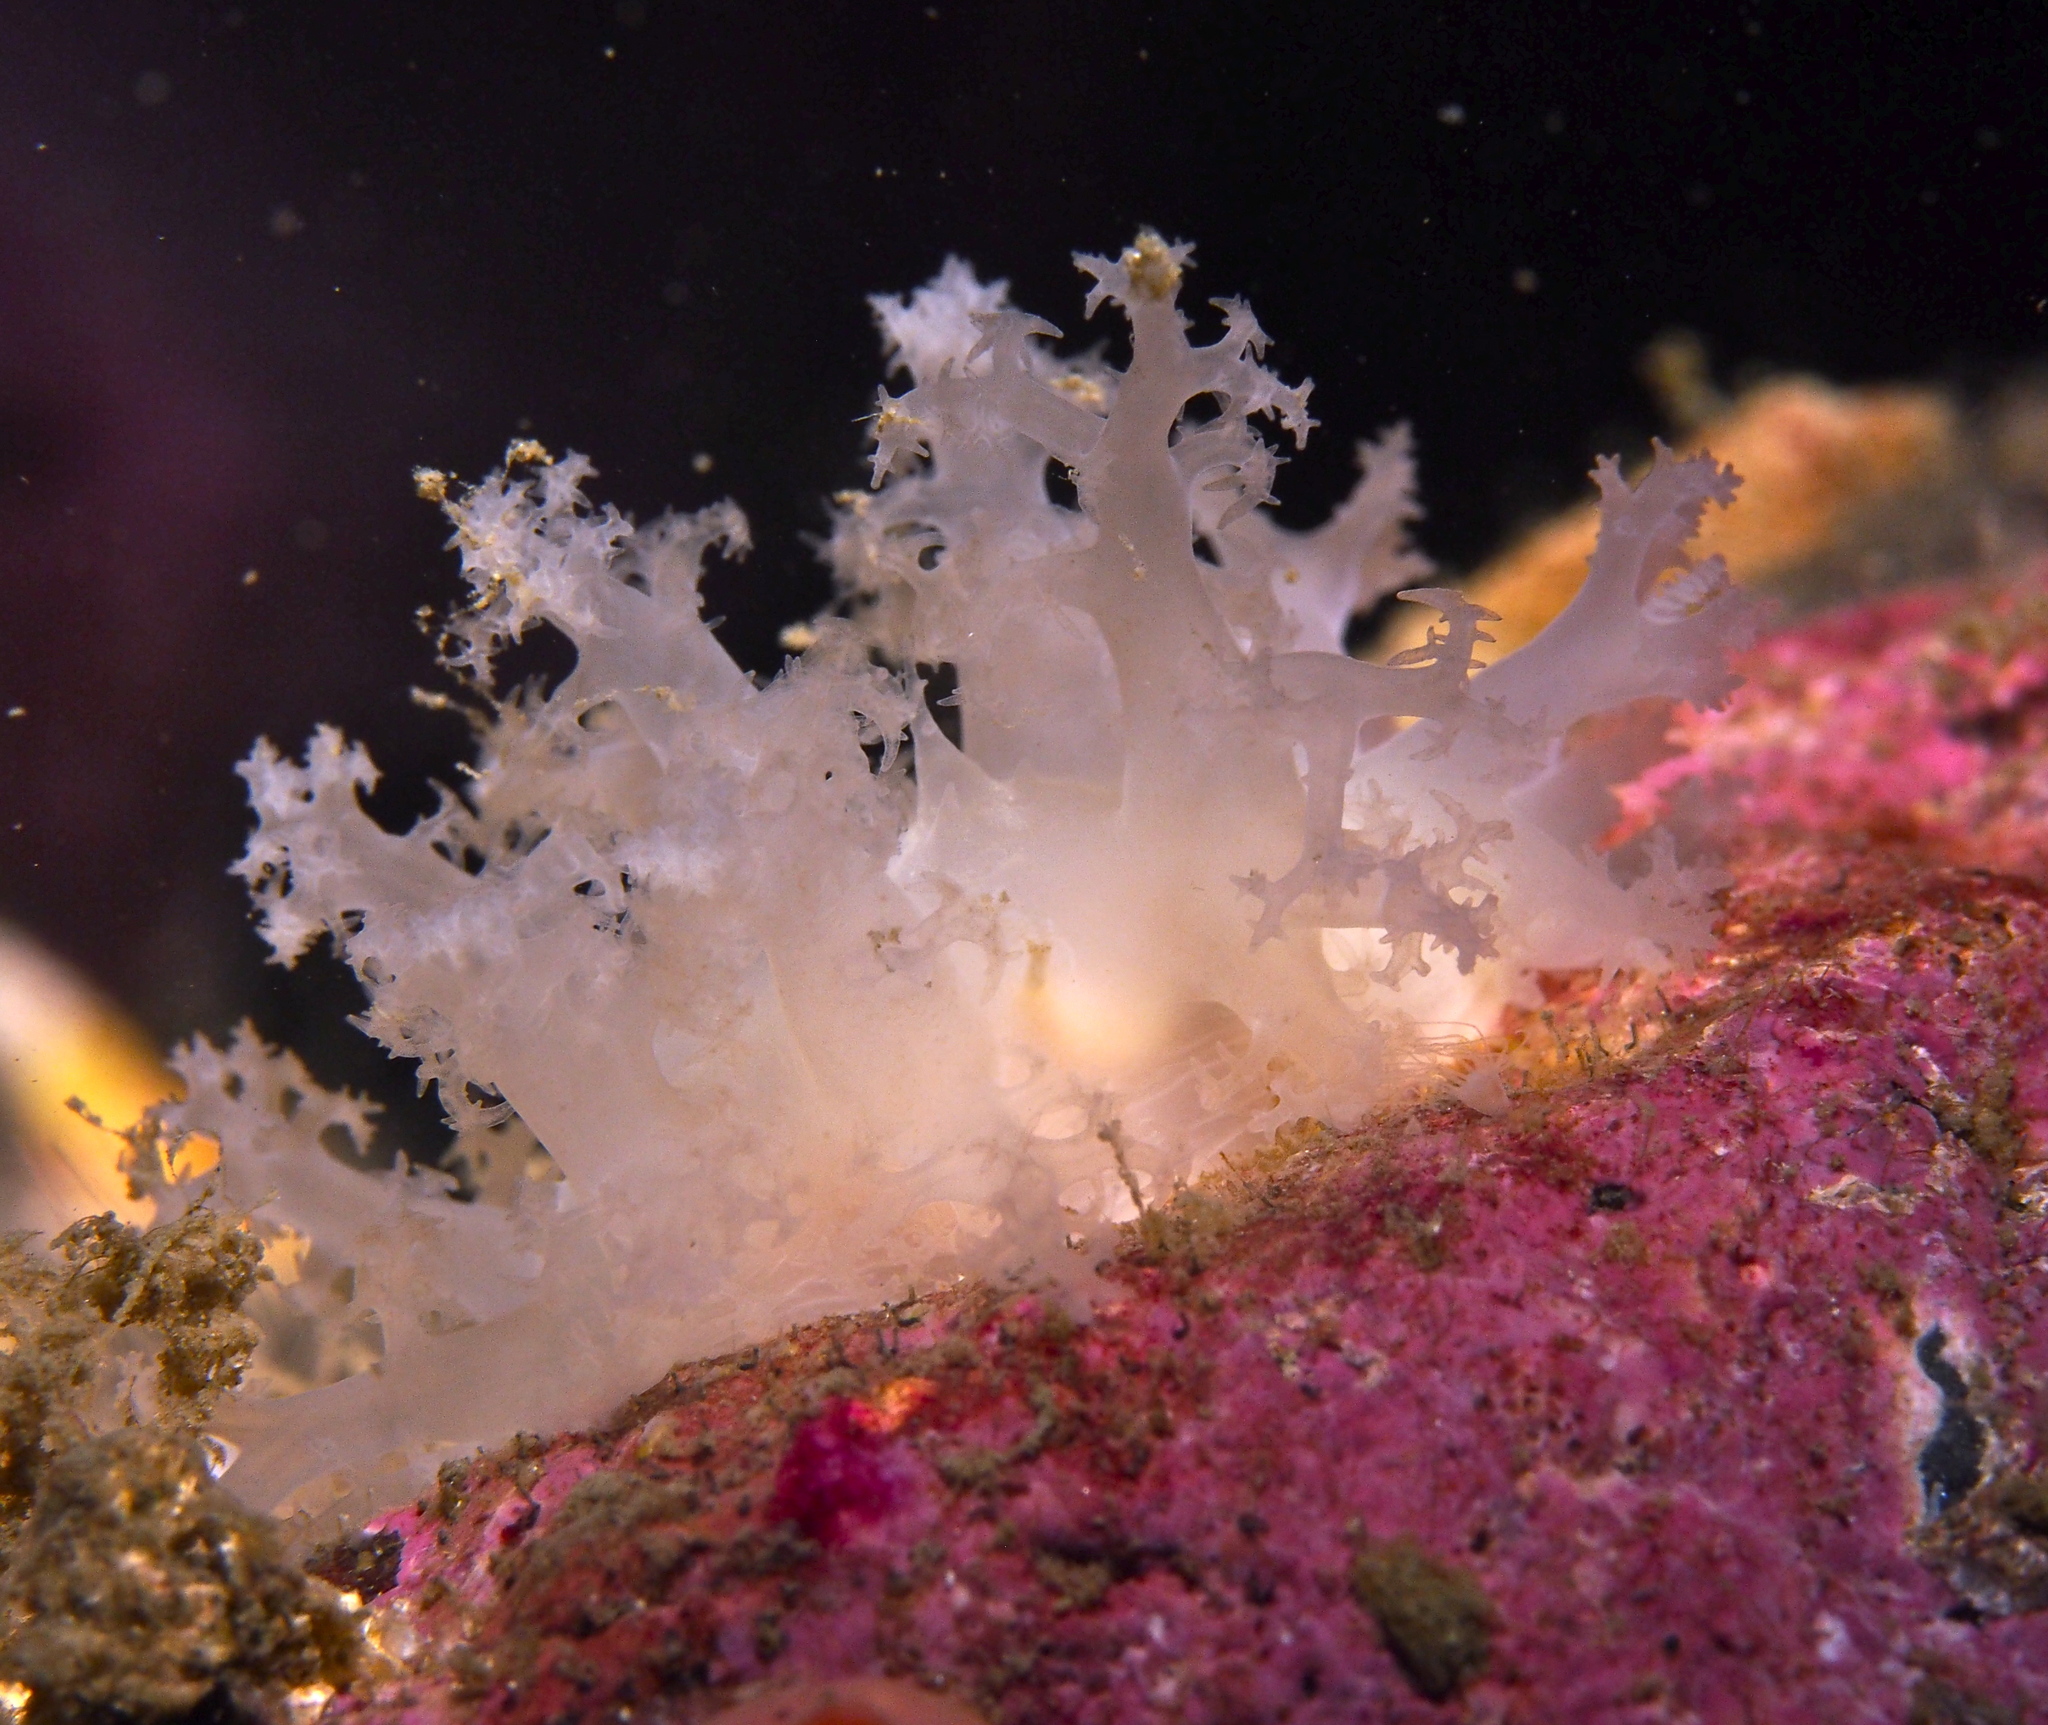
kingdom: Animalia
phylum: Mollusca
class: Gastropoda
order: Nudibranchia
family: Dendronotidae
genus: Dendronotus
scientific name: Dendronotus lacteus
